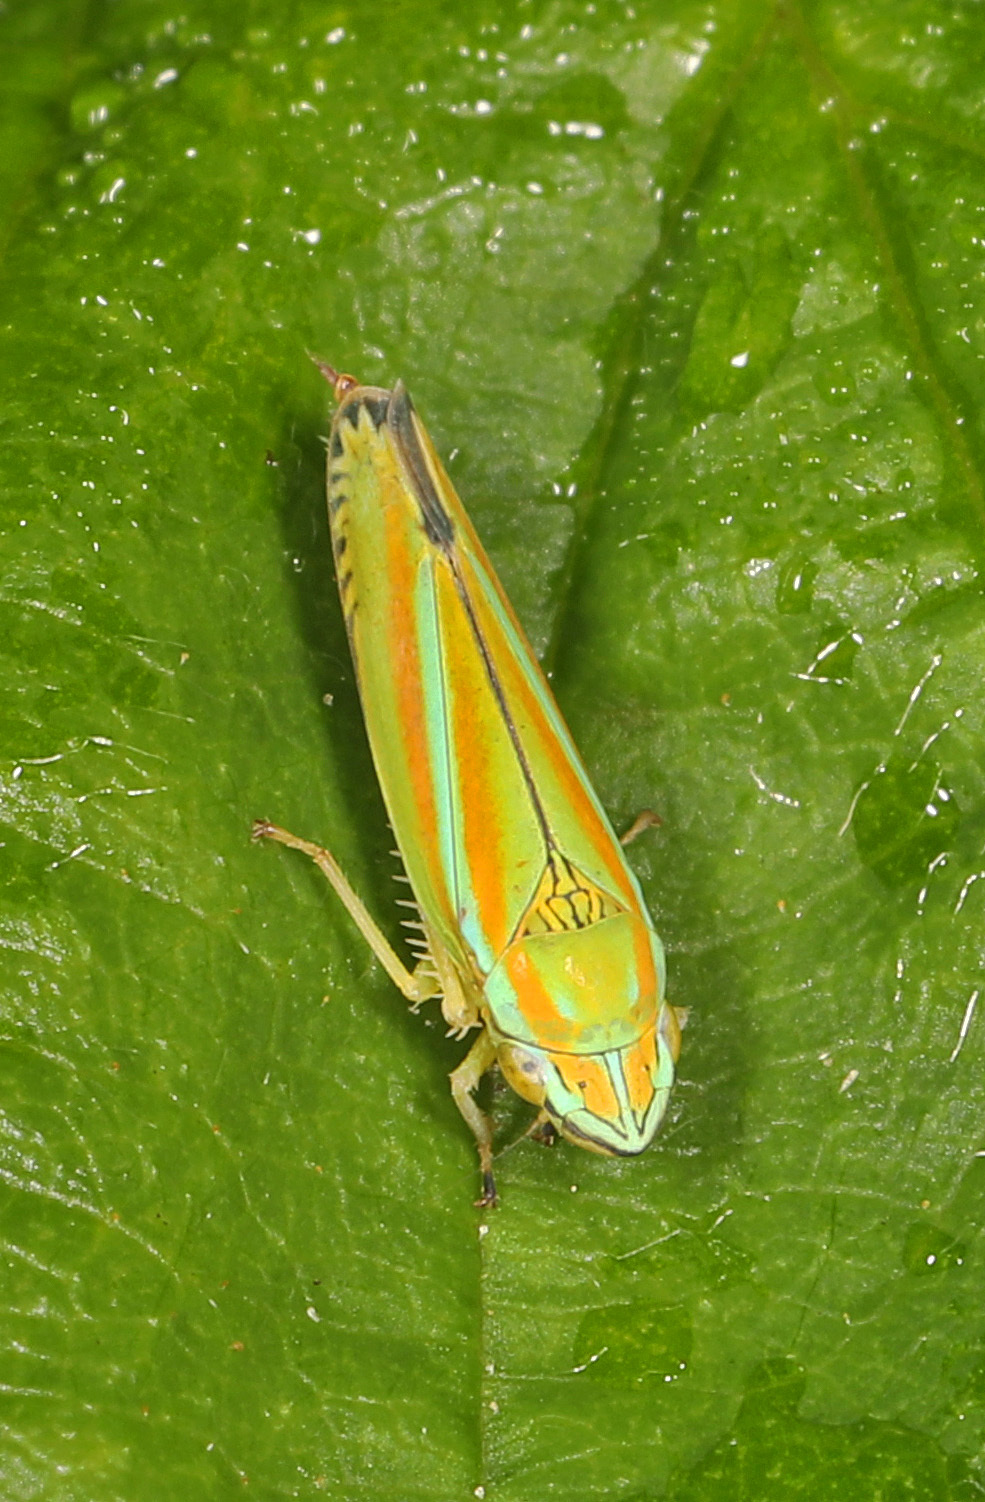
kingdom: Animalia
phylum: Arthropoda
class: Insecta
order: Hemiptera
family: Cicadellidae
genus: Graphocephala
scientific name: Graphocephala versuta
